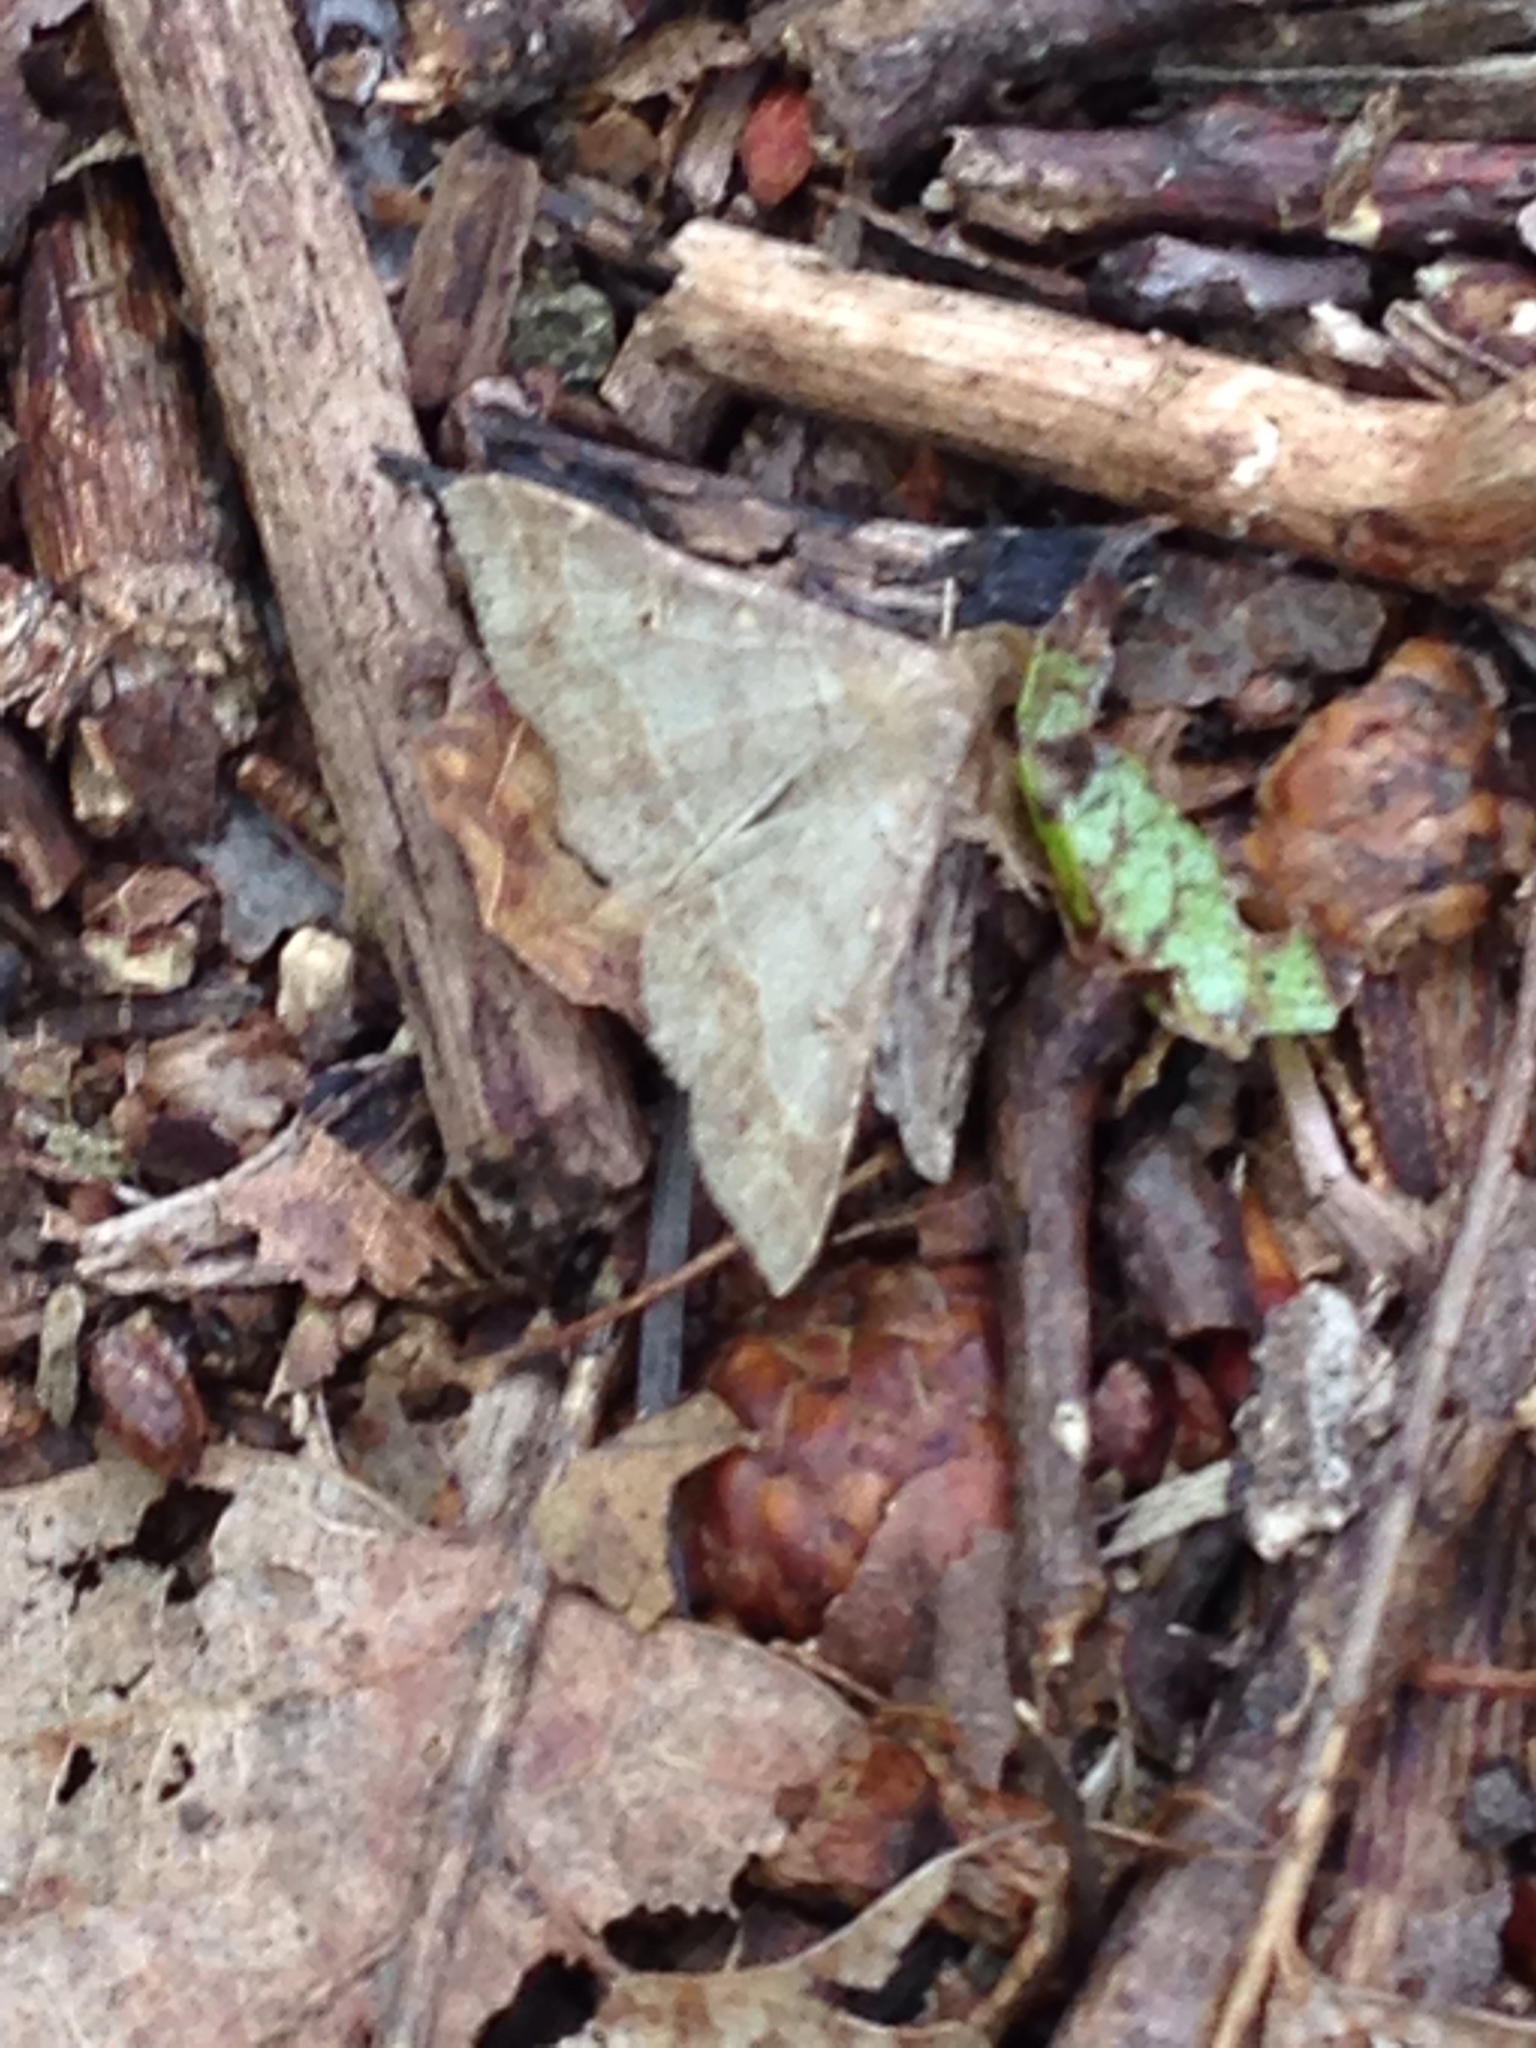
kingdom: Animalia
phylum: Arthropoda
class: Insecta
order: Lepidoptera
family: Erebidae
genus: Renia
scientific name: Renia flavipunctalis
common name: Yellow-spotted renia moth
